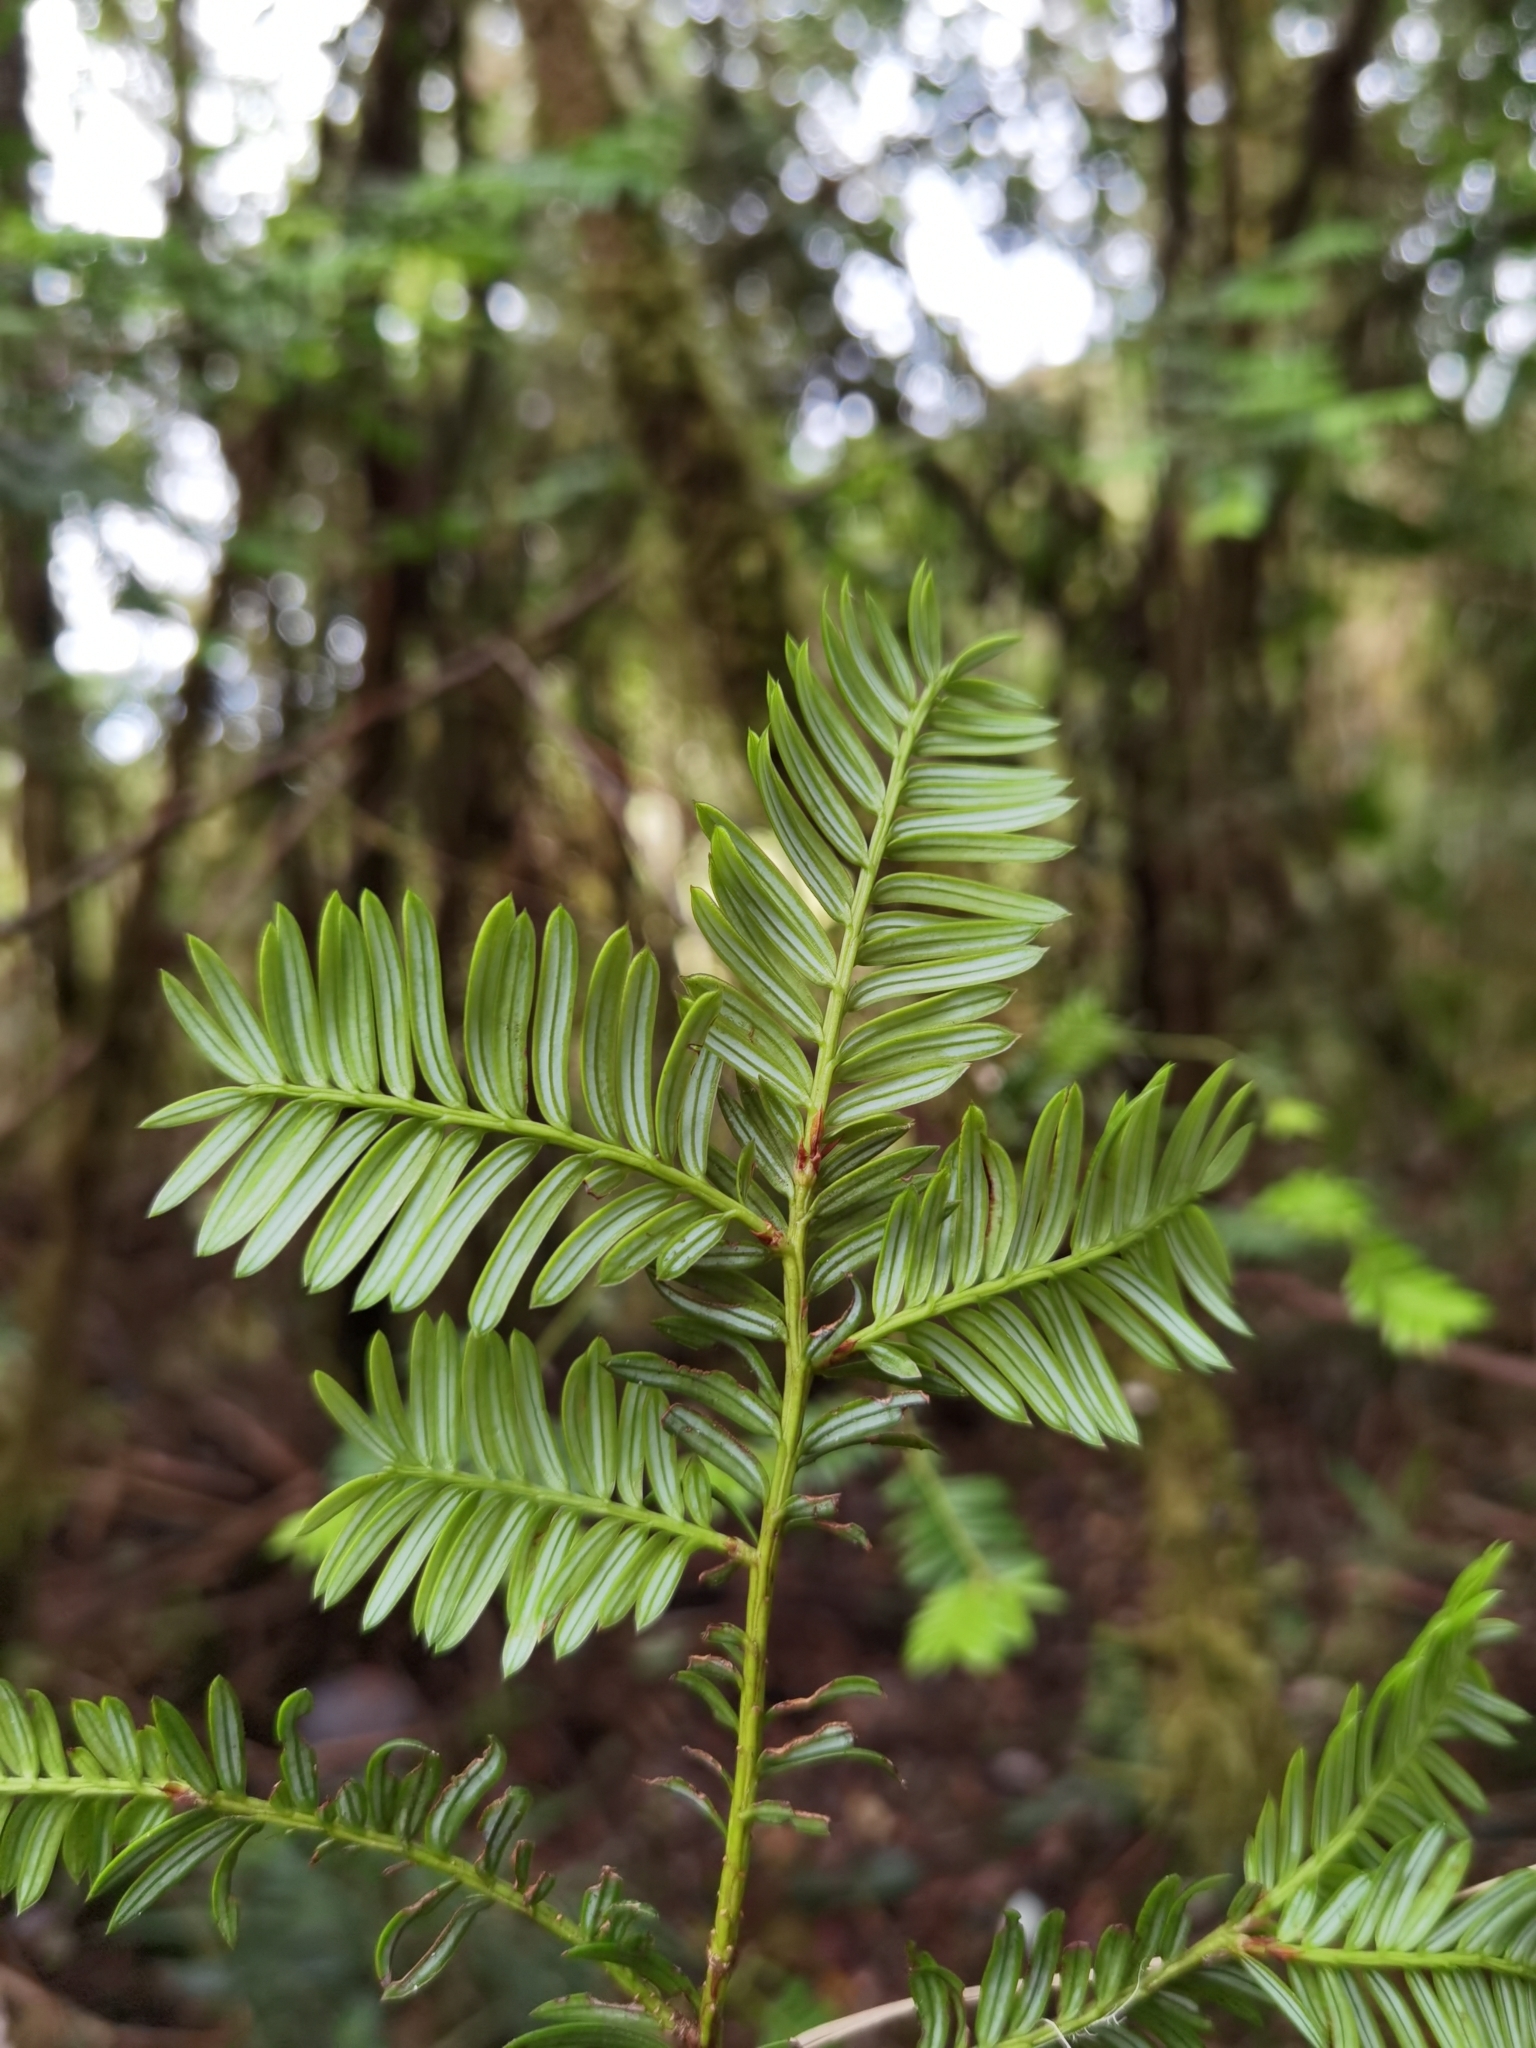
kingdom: Plantae
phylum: Tracheophyta
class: Pinopsida
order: Pinales
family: Podocarpaceae
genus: Prumnopitys
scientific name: Prumnopitys standleyi
